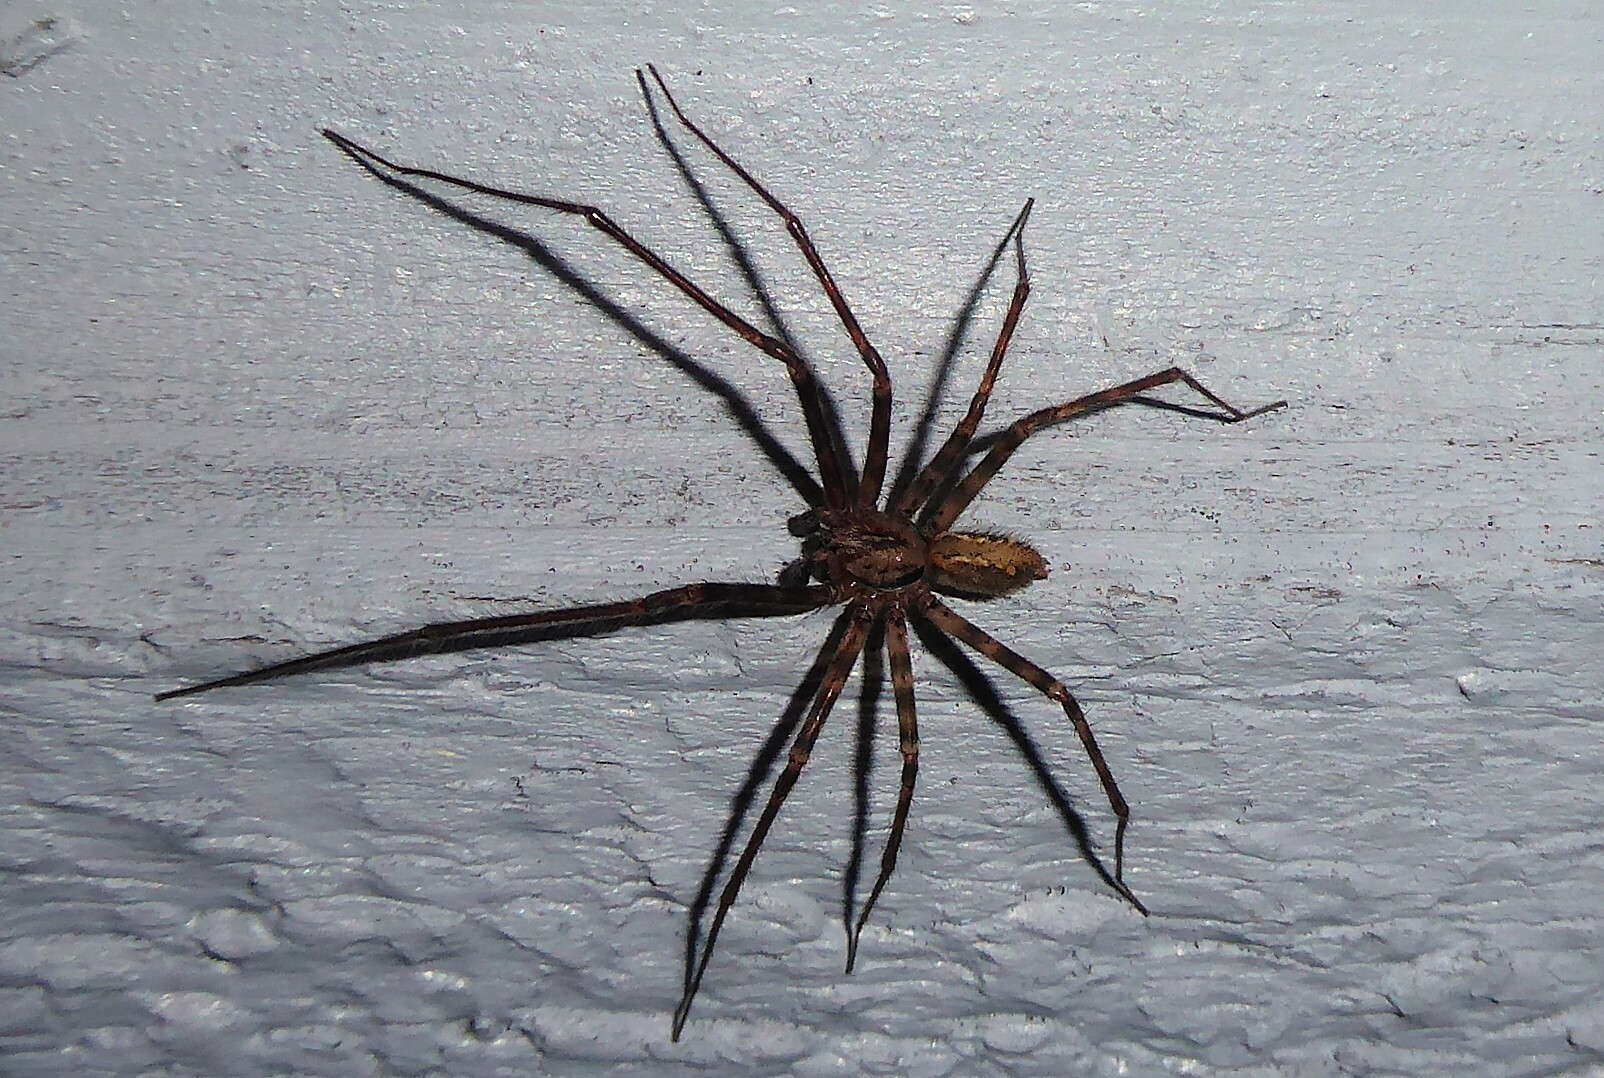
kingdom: Animalia
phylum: Arthropoda
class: Arachnida
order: Araneae
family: Stiphidiidae
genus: Stiphidion
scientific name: Stiphidion facetum
